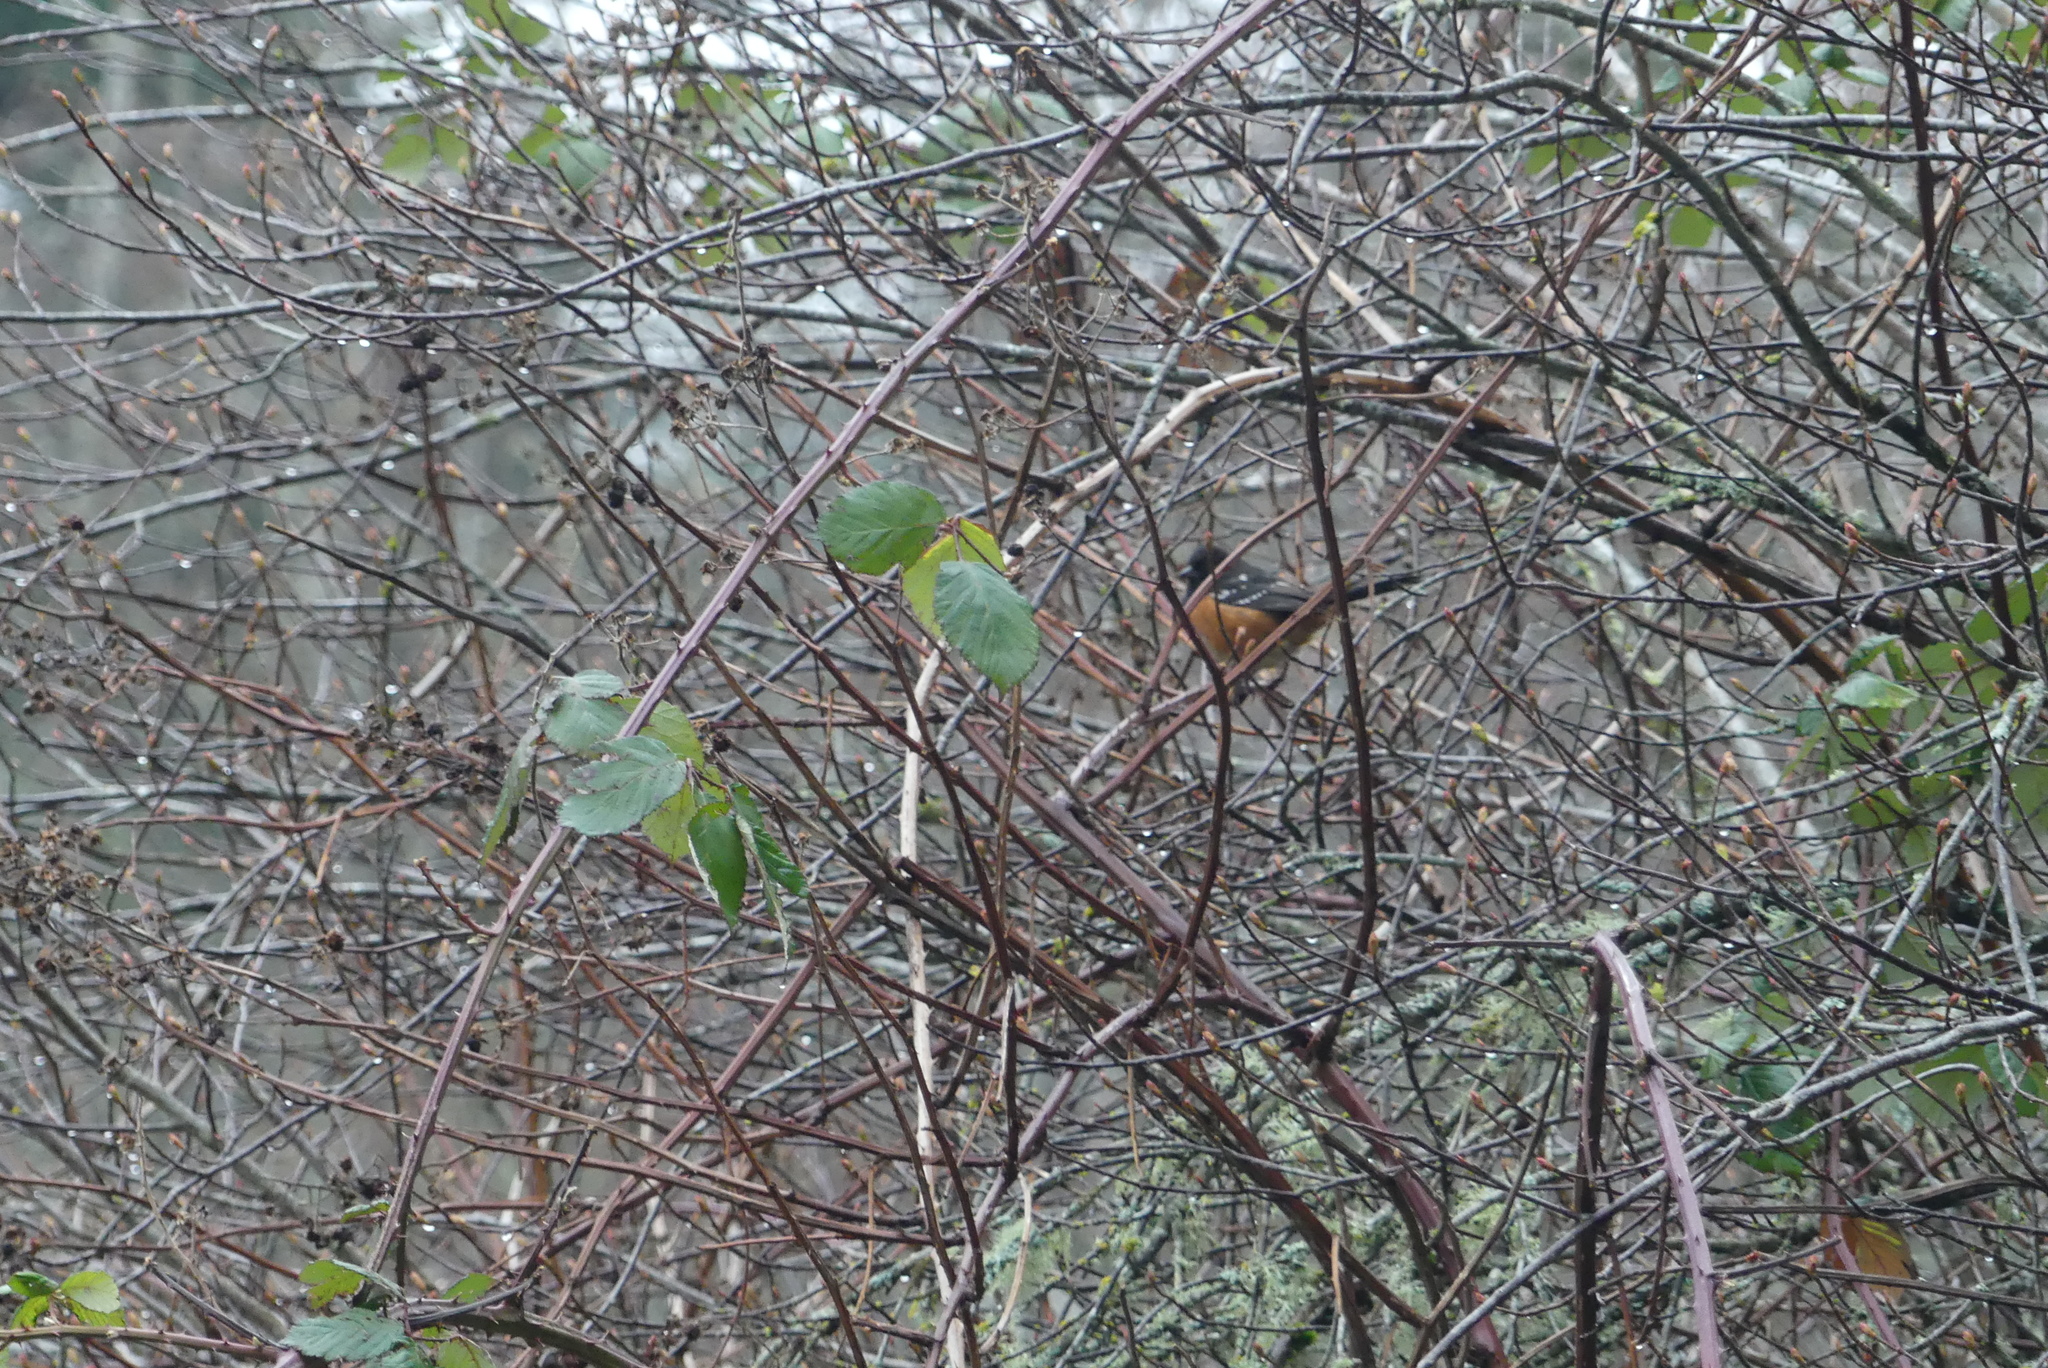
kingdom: Animalia
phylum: Chordata
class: Aves
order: Passeriformes
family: Passerellidae
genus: Pipilo
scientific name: Pipilo maculatus
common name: Spotted towhee
